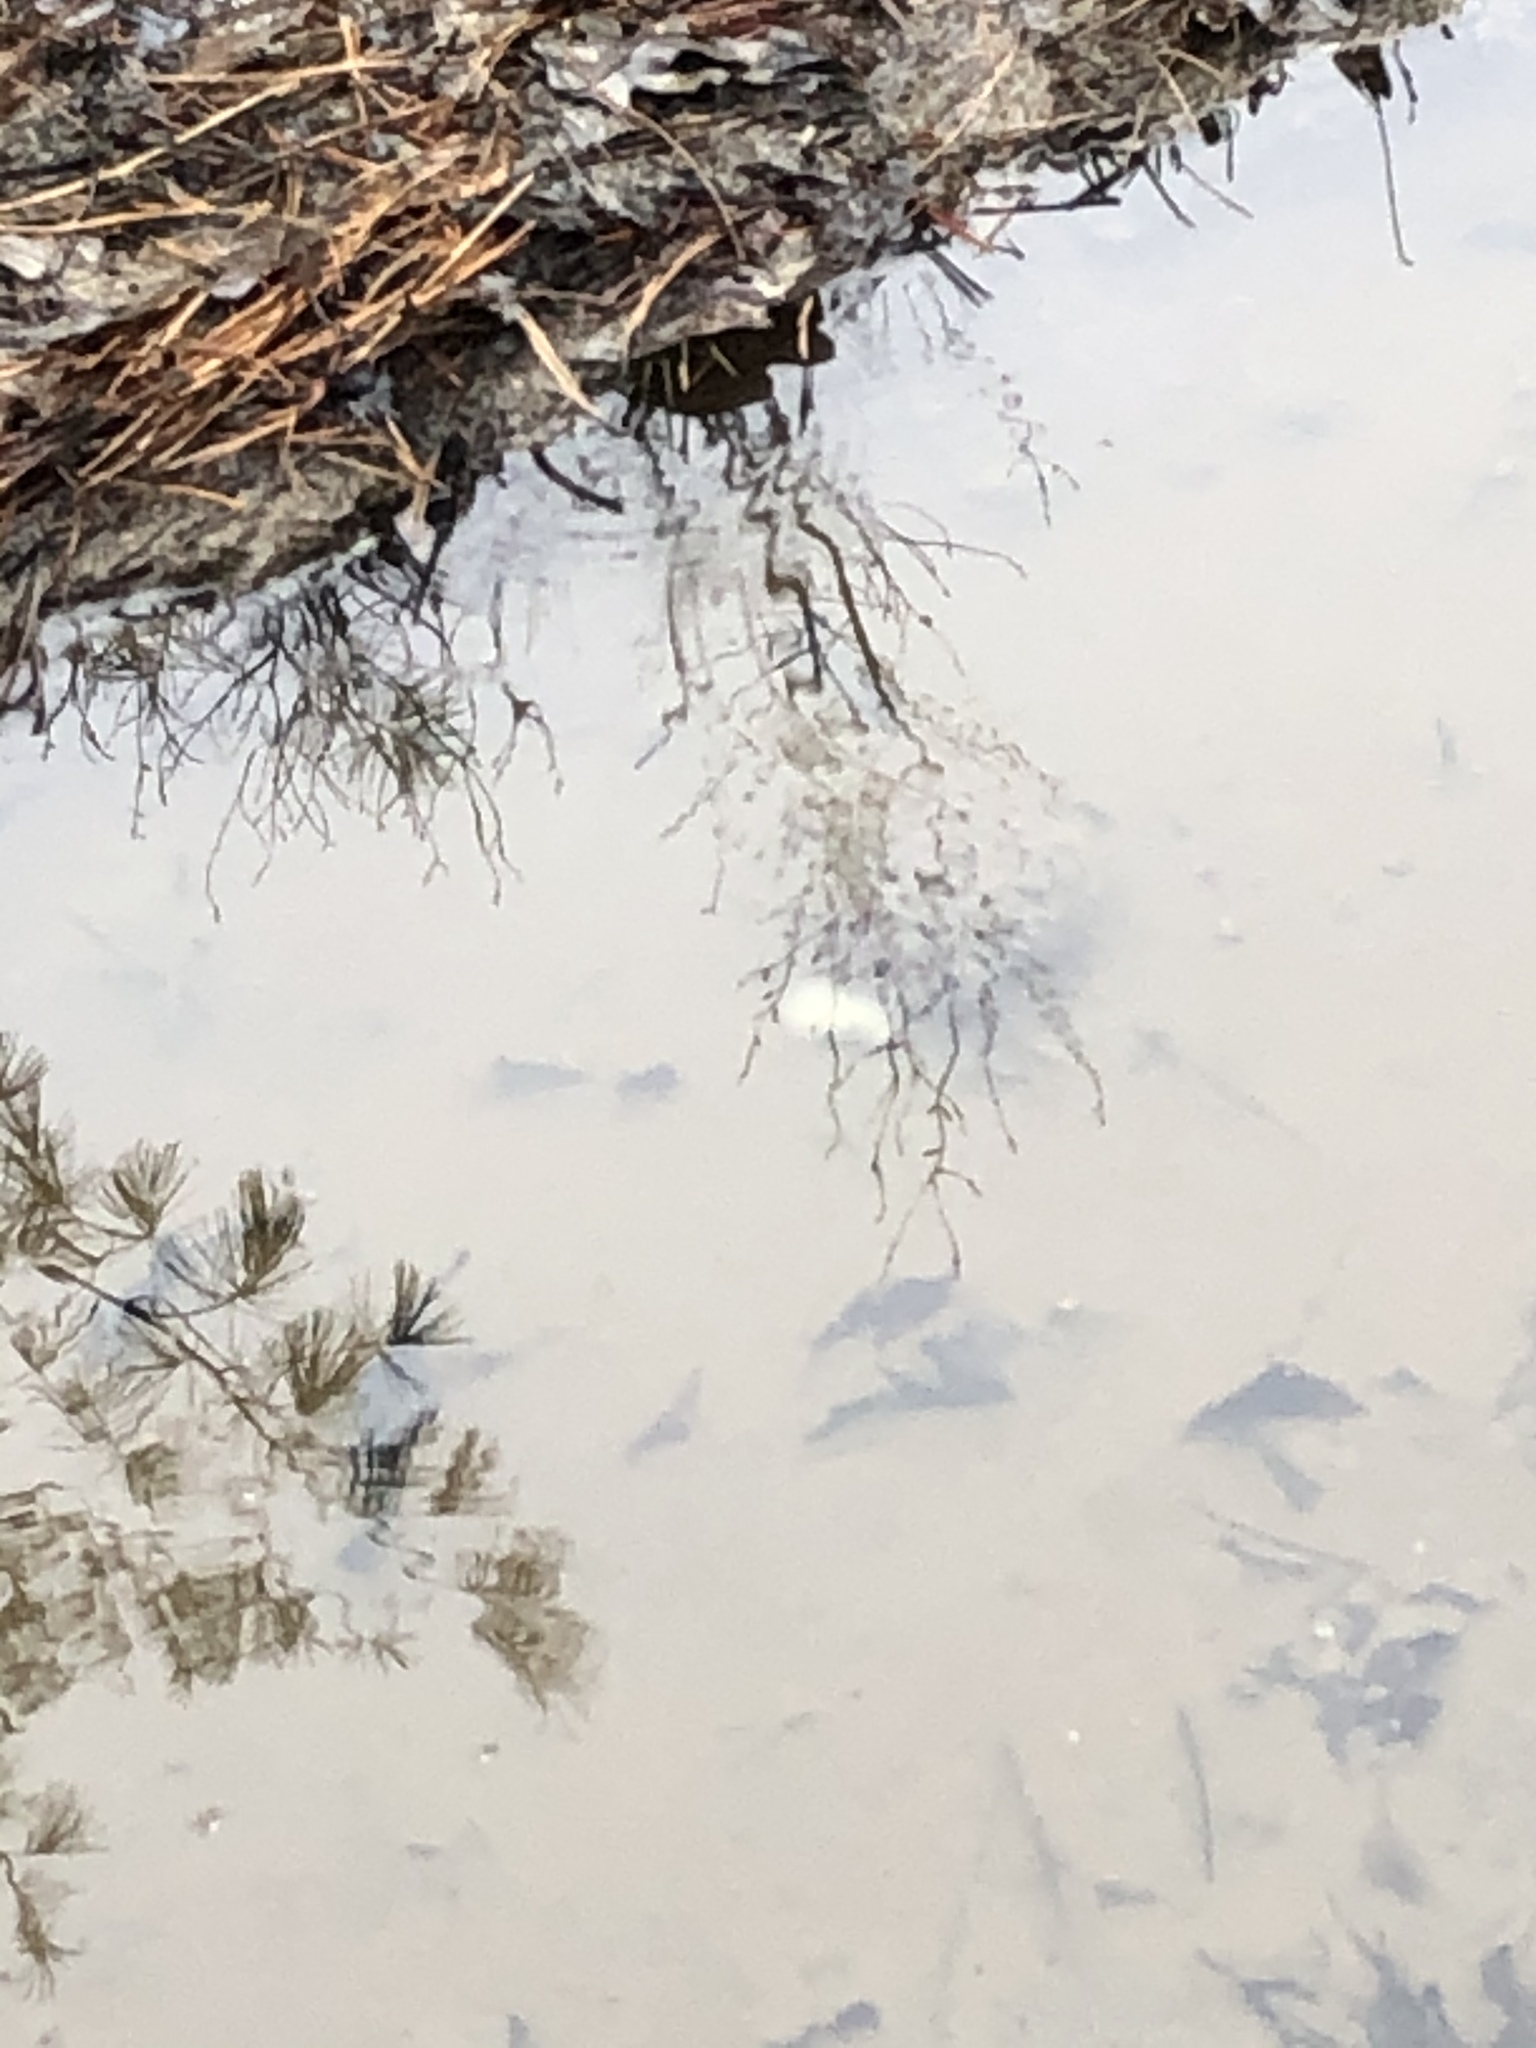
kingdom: Animalia
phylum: Chordata
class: Amphibia
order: Caudata
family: Ambystomatidae
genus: Ambystoma
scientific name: Ambystoma maculatum
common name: Spotted salamander
